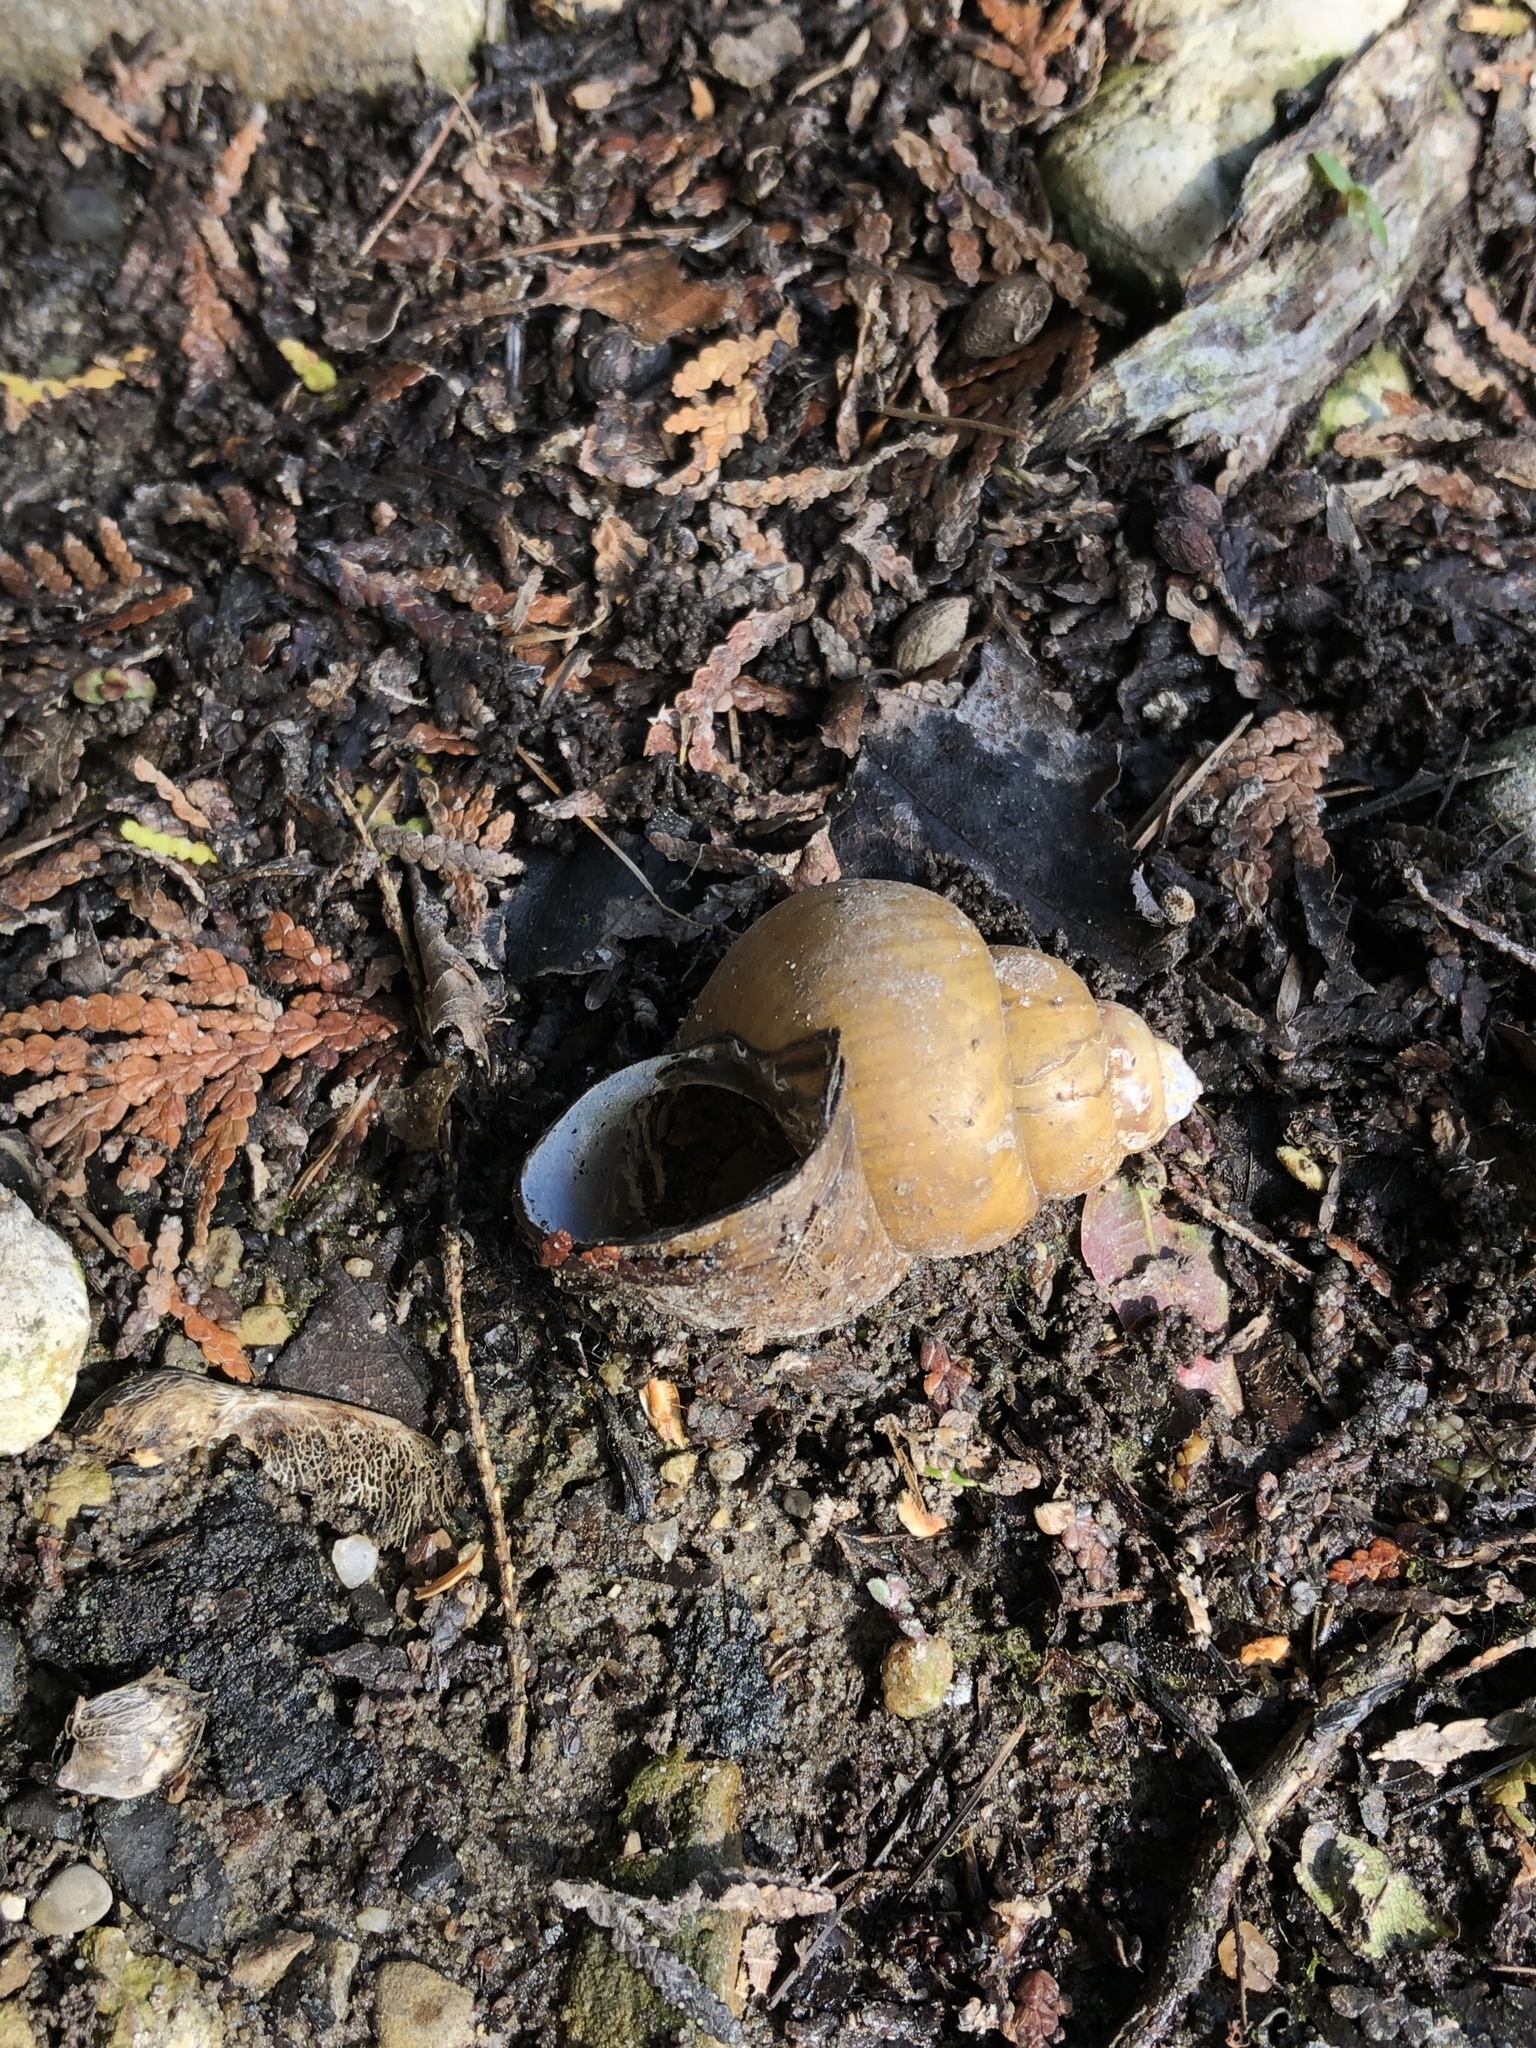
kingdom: Animalia
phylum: Mollusca
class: Gastropoda
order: Architaenioglossa
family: Viviparidae
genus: Cipangopaludina
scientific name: Cipangopaludina chinensis
